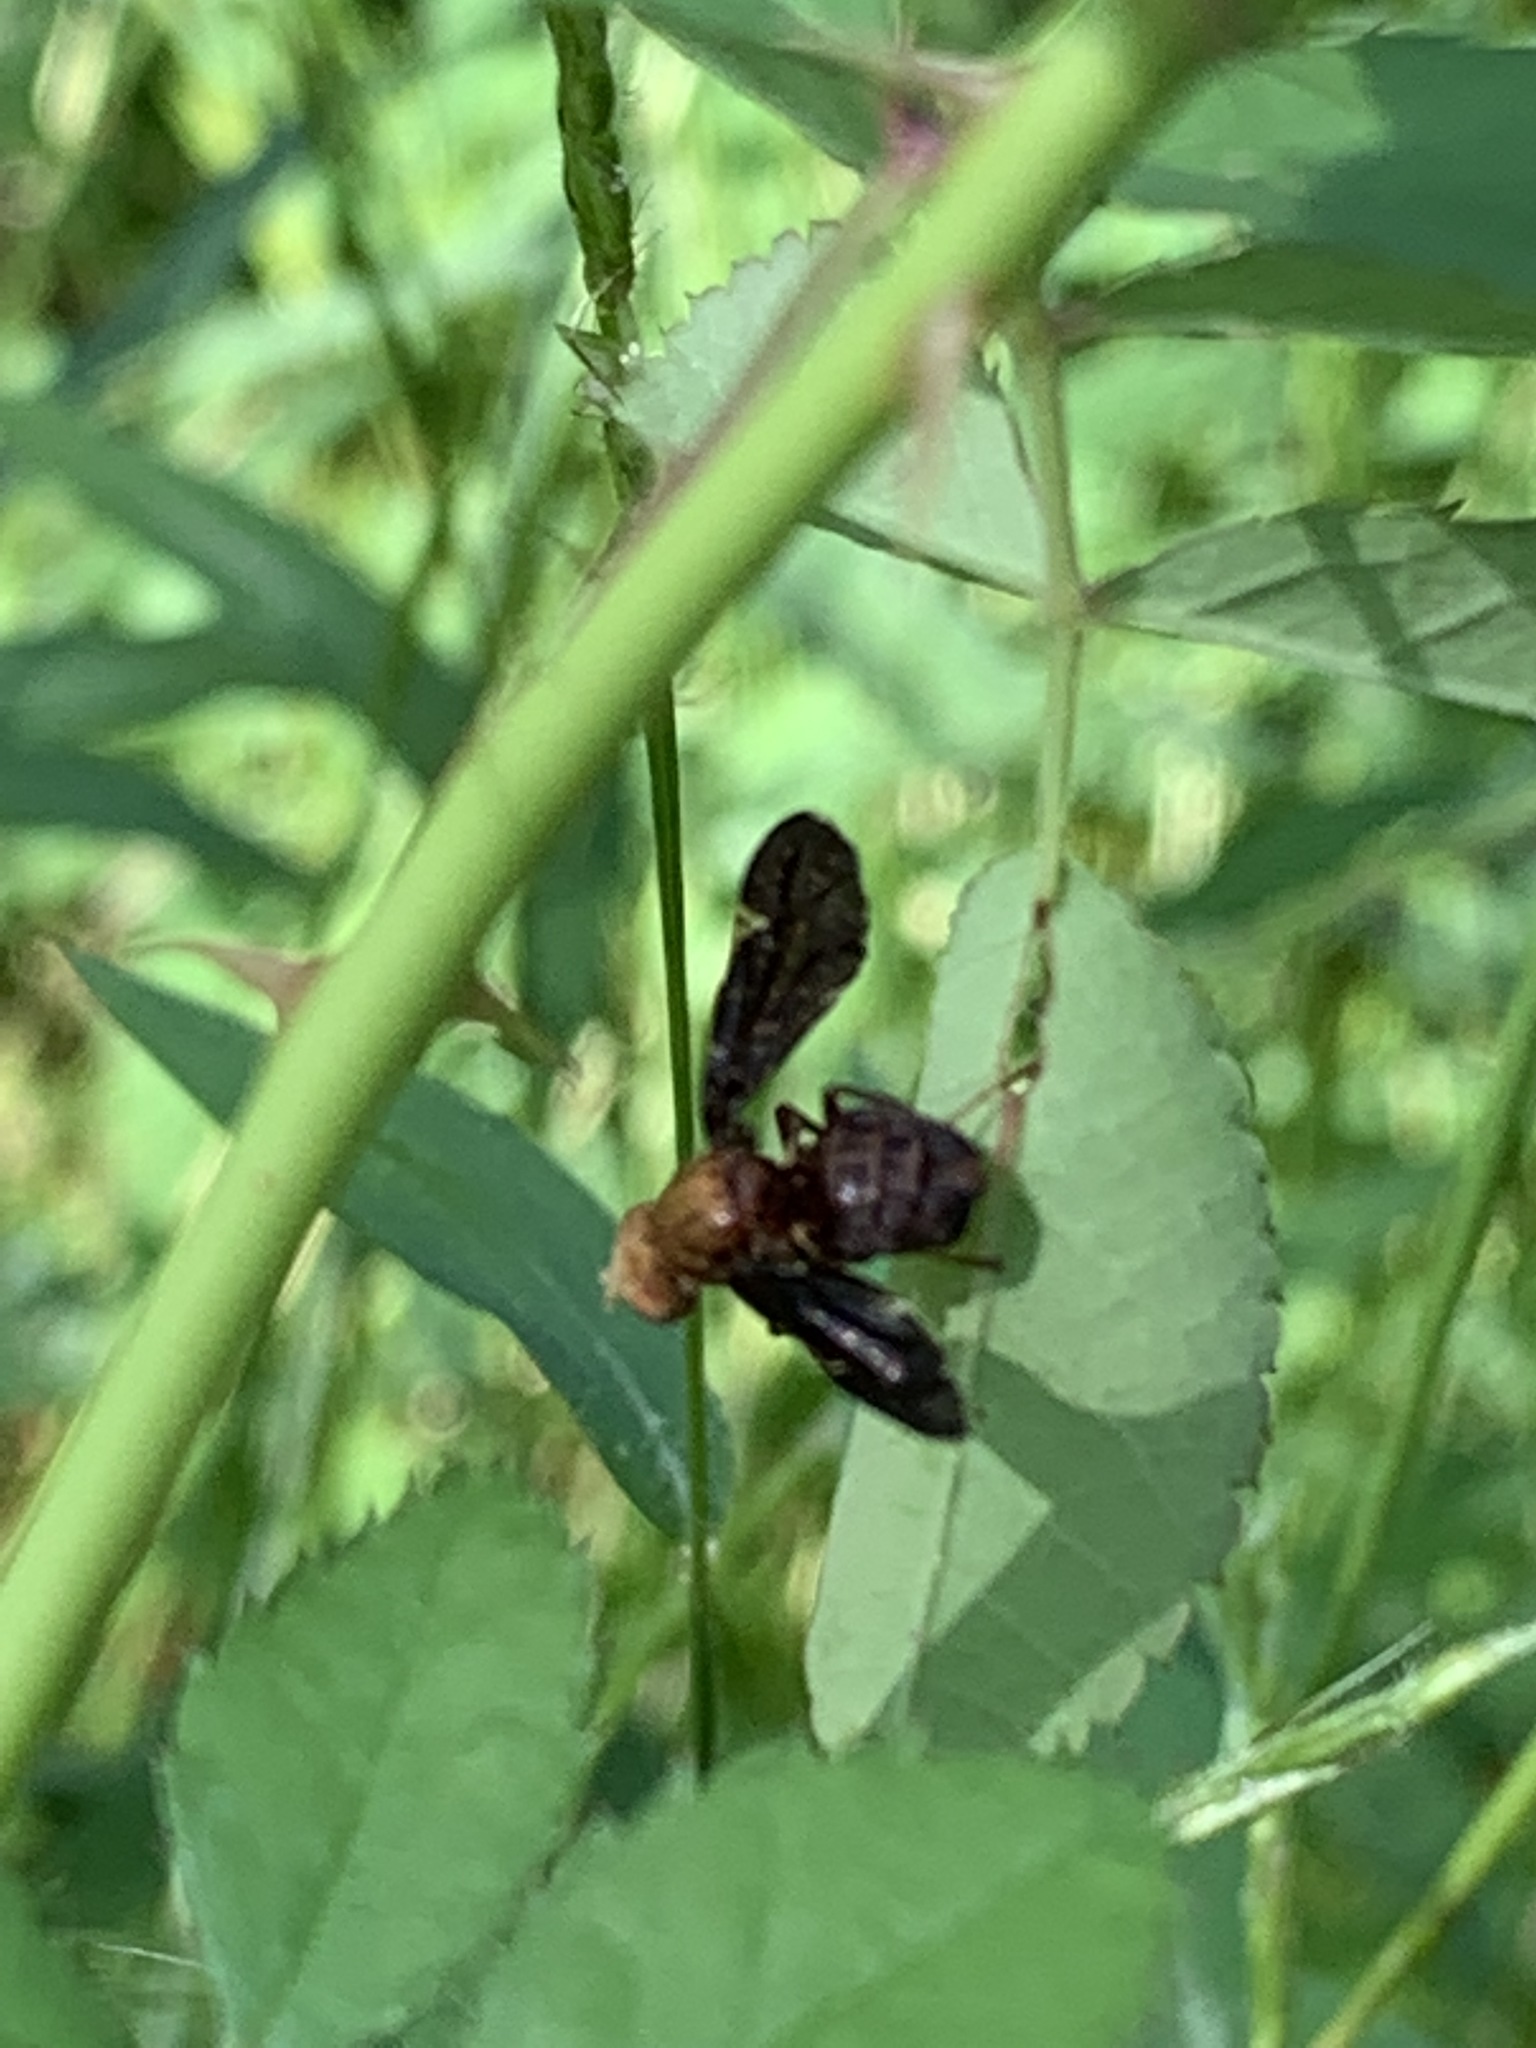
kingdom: Animalia
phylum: Arthropoda
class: Insecta
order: Diptera
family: Tephritidae
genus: Eurosta
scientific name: Eurosta comma
